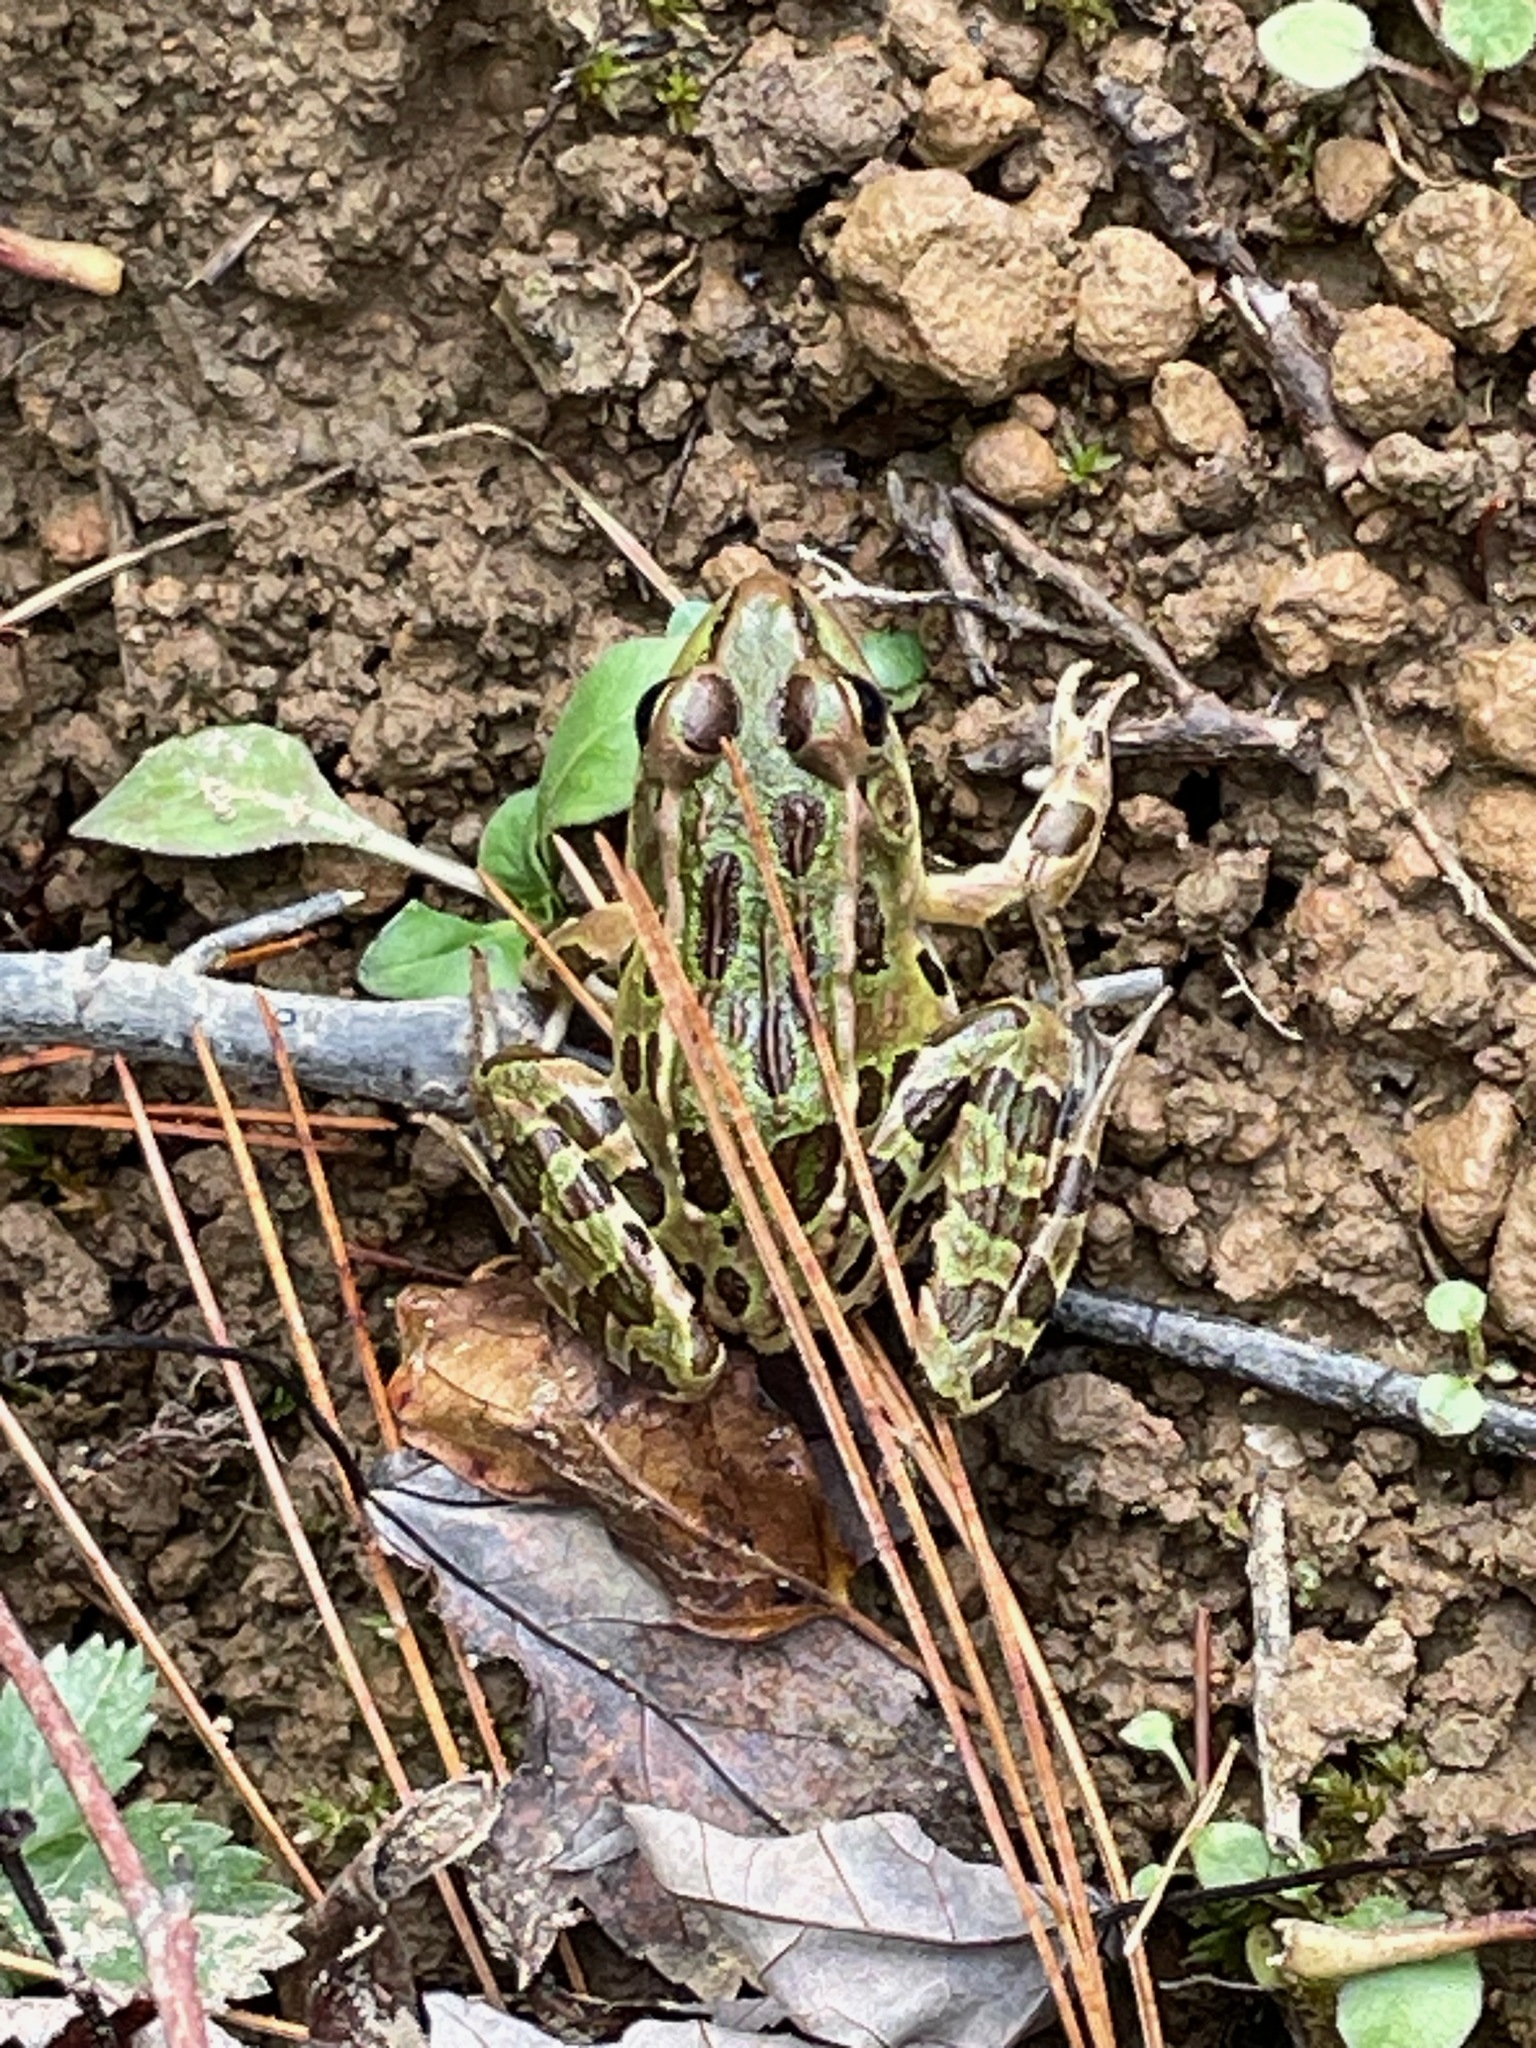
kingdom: Animalia
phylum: Chordata
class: Amphibia
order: Anura
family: Ranidae
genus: Lithobates
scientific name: Lithobates pipiens
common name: Northern leopard frog
